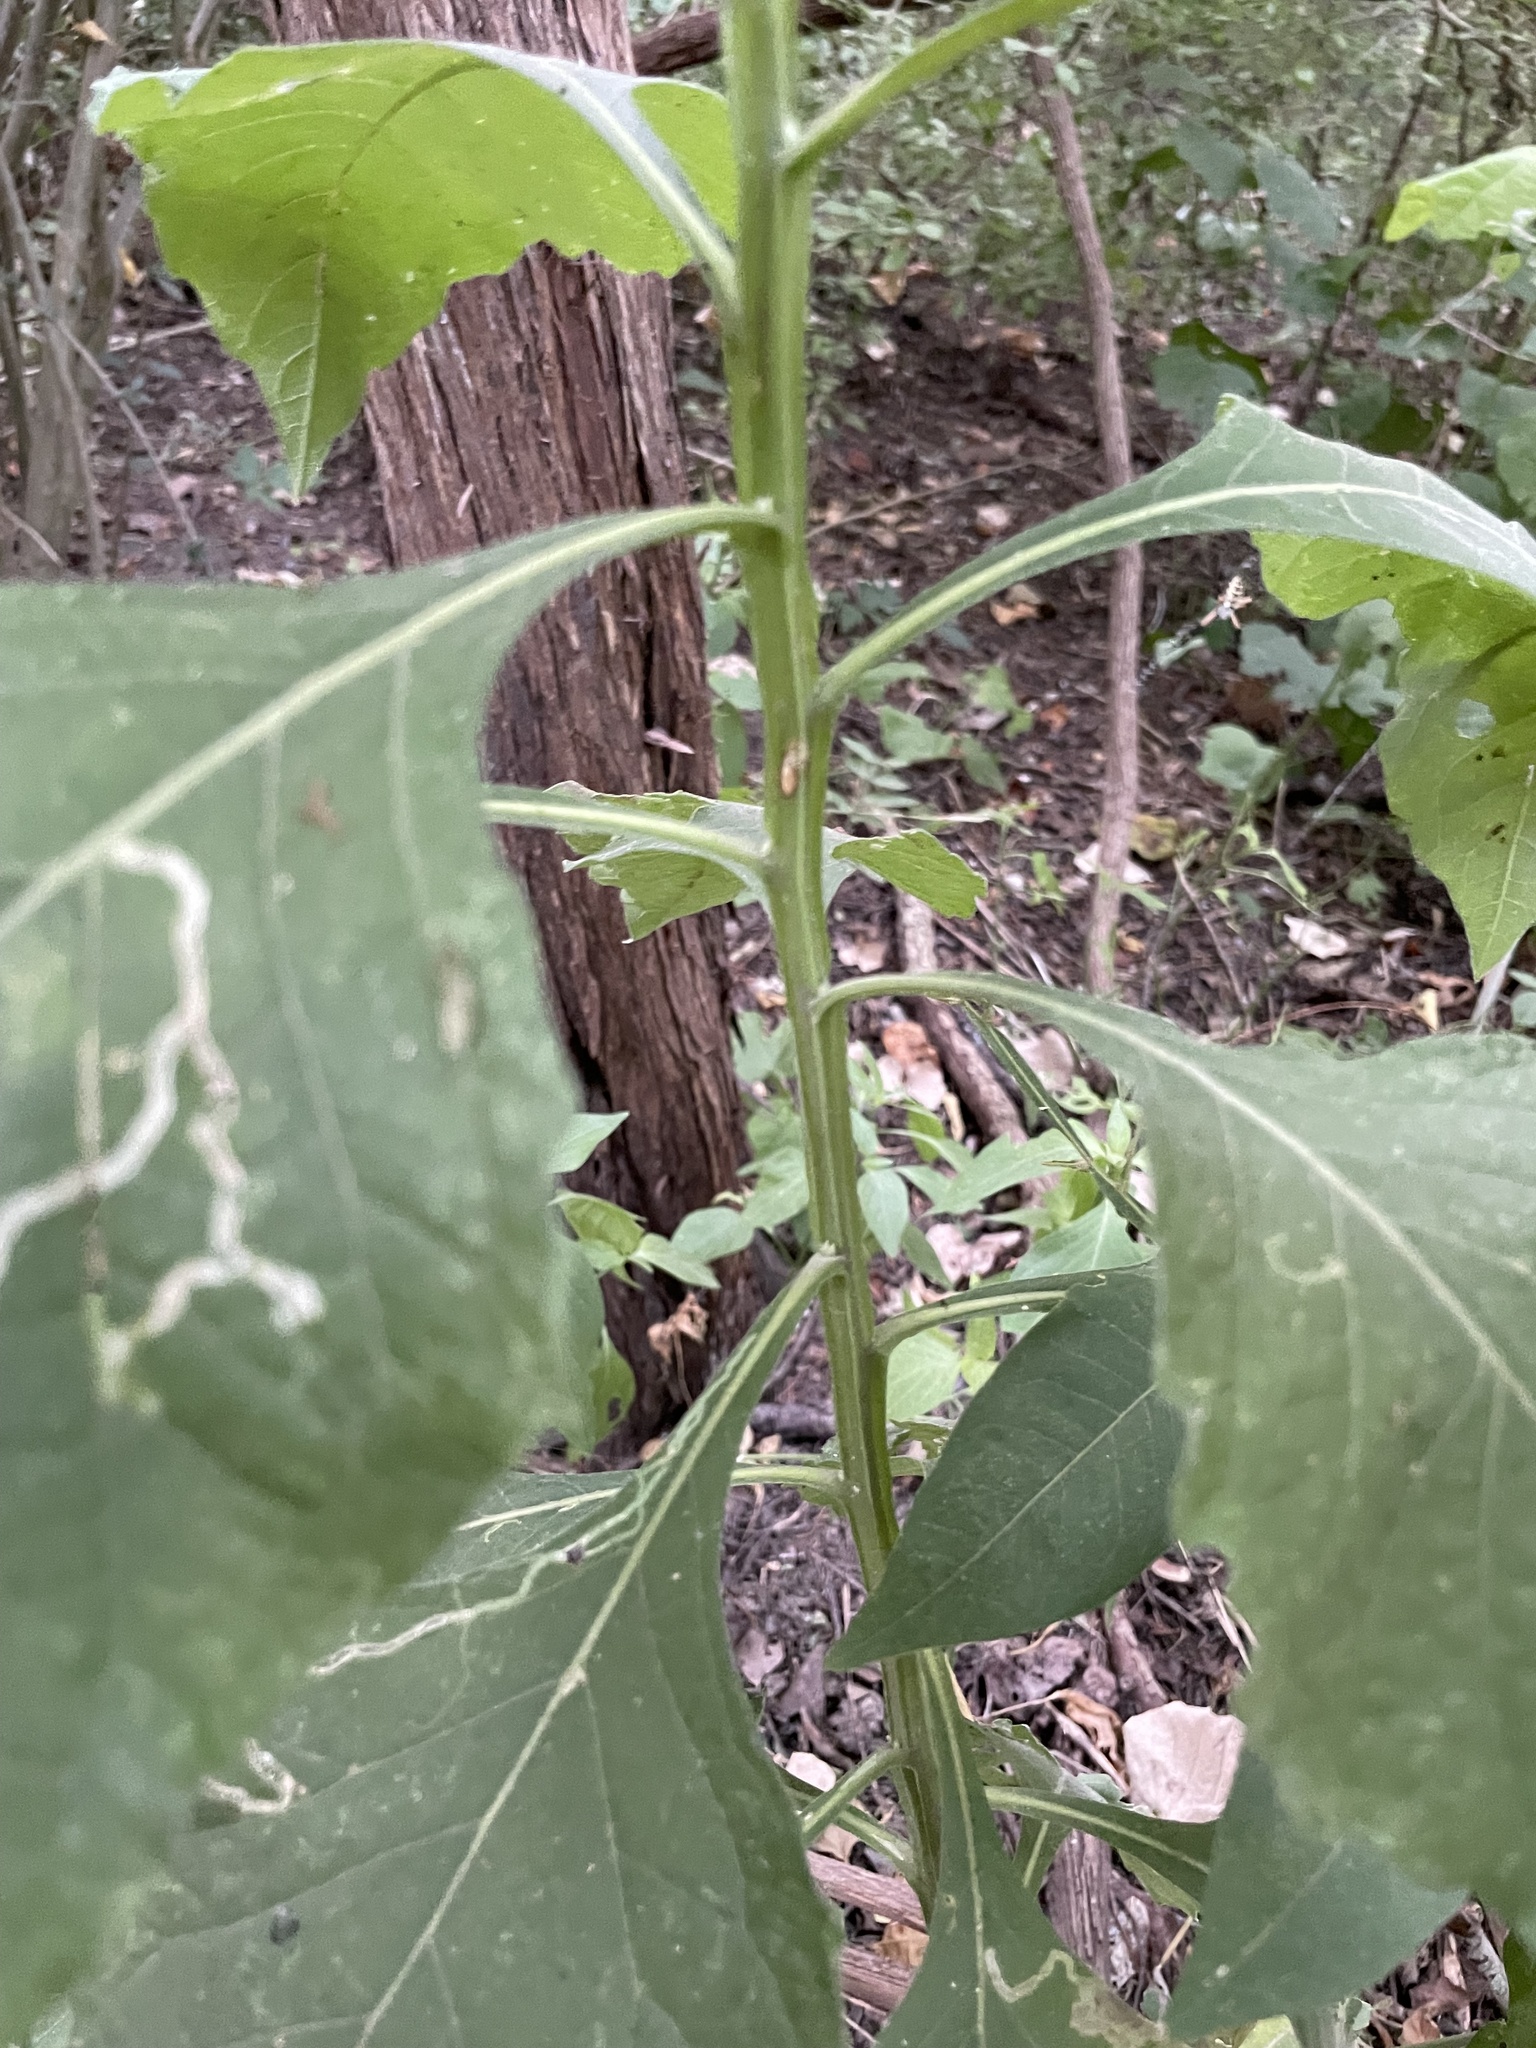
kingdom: Plantae
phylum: Tracheophyta
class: Magnoliopsida
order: Asterales
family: Asteraceae
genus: Verbesina
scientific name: Verbesina virginica
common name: Frostweed
